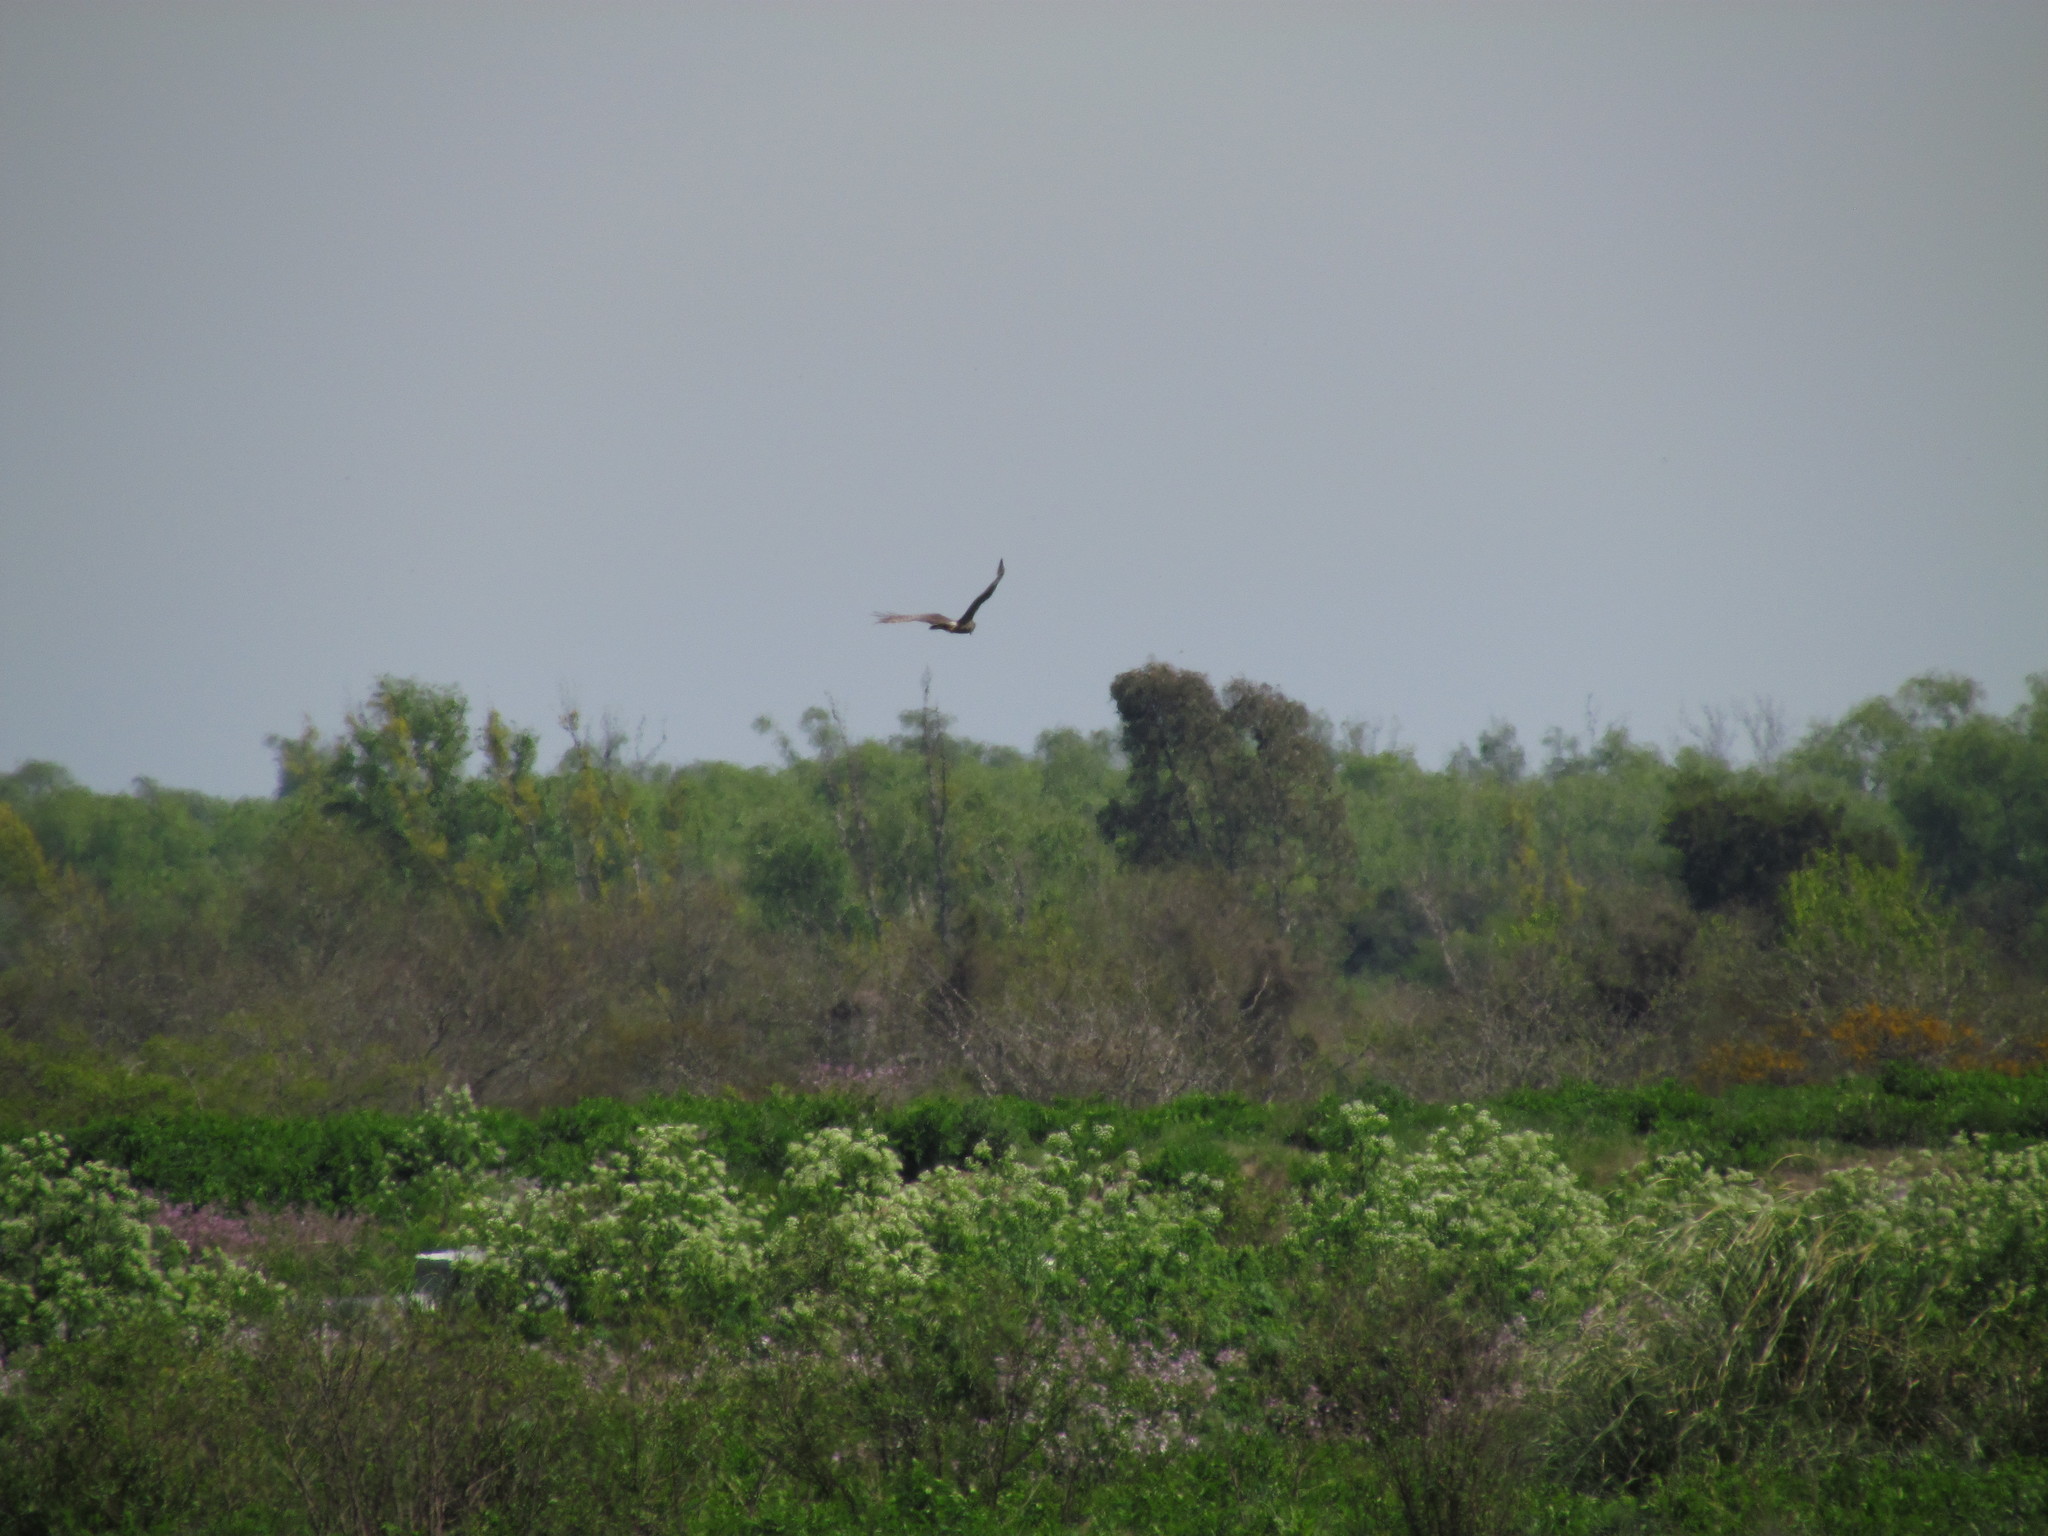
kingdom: Animalia
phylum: Chordata
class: Aves
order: Accipitriformes
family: Accipitridae
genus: Circus
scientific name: Circus buffoni
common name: Long-winged harrier
